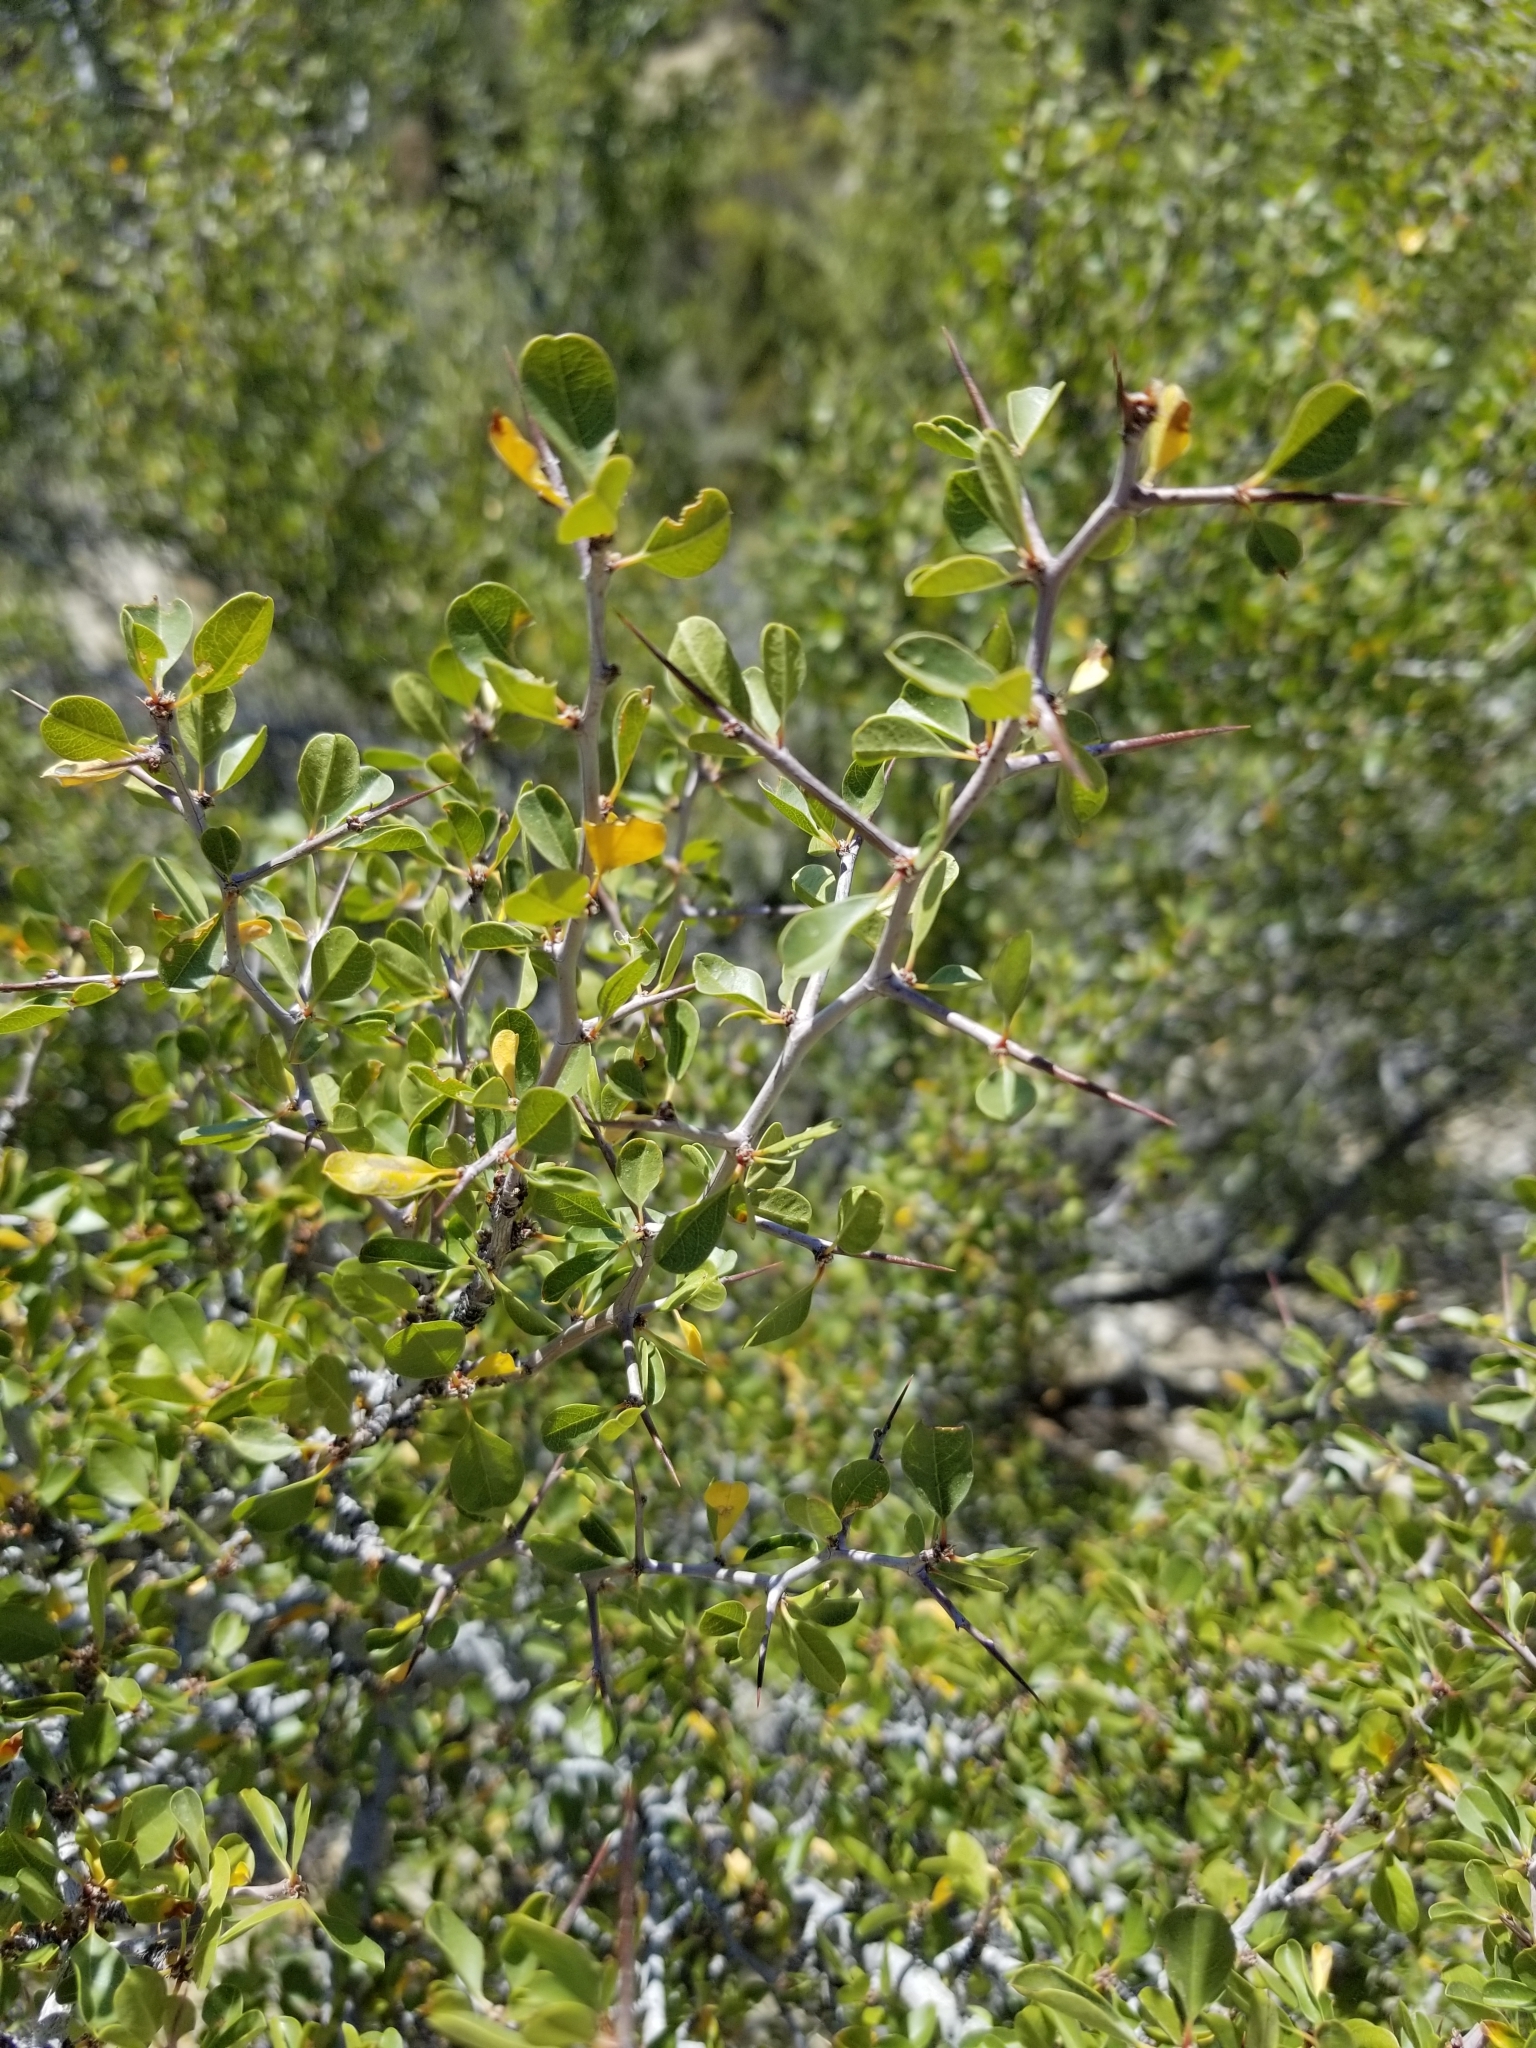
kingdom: Plantae
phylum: Tracheophyta
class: Magnoliopsida
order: Rosales
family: Rhamnaceae
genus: Pseudoziziphus
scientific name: Pseudoziziphus parryi
